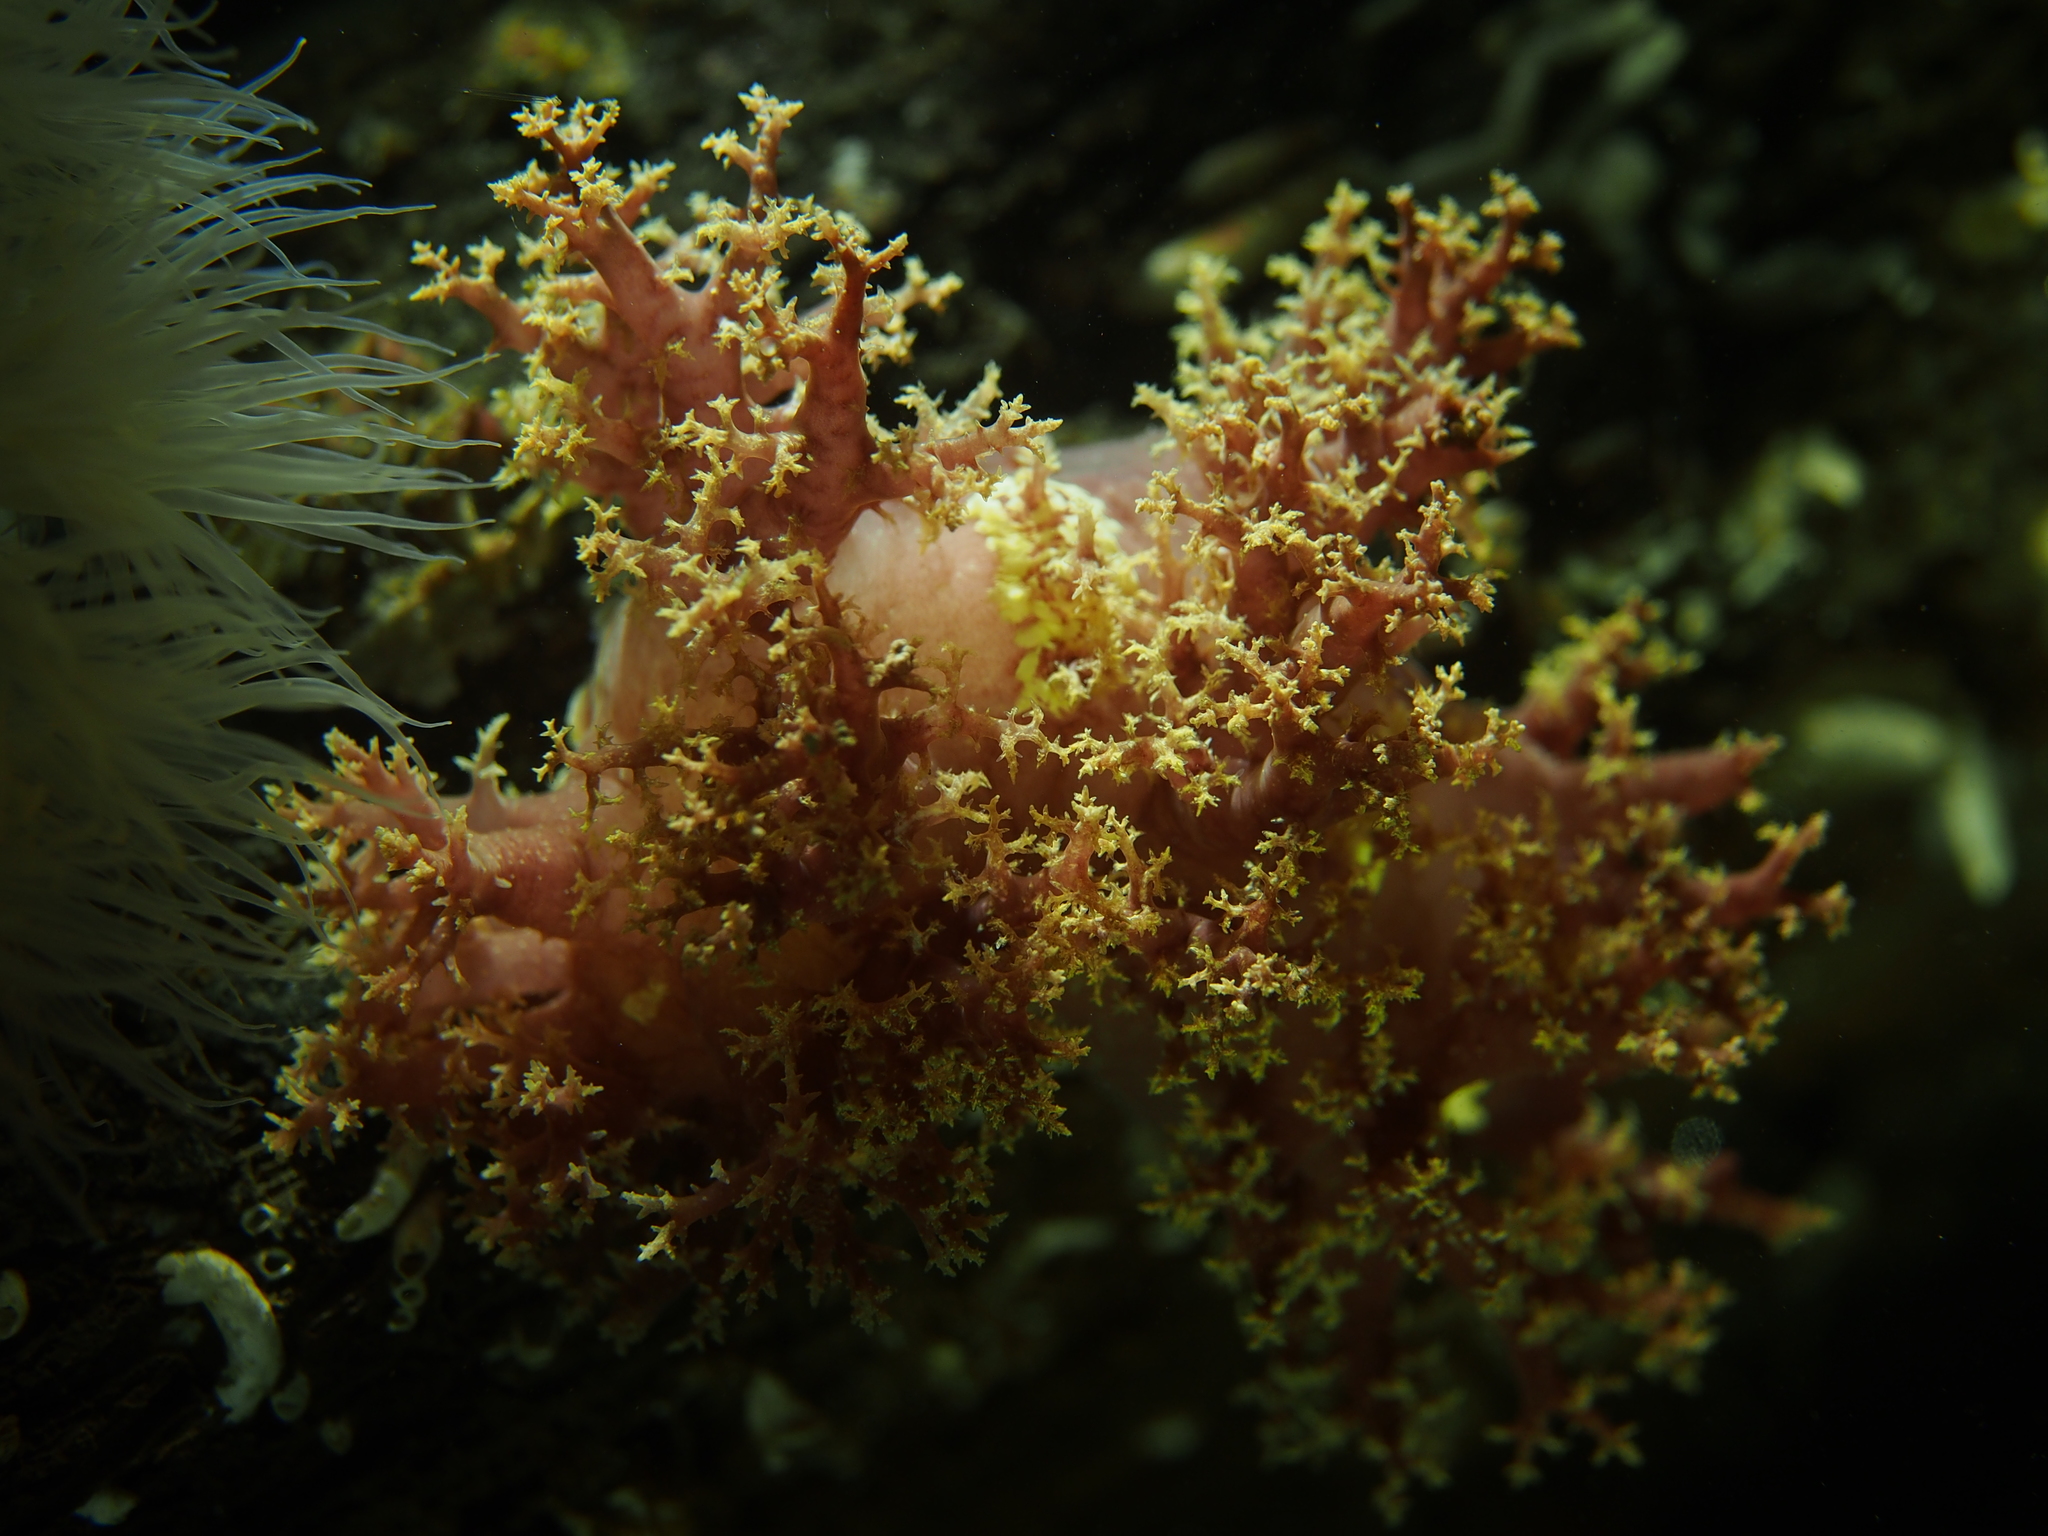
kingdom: Animalia
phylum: Mollusca
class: Gastropoda
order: Nudibranchia
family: Dendronotidae
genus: Dendronotus
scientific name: Dendronotus lacteus
